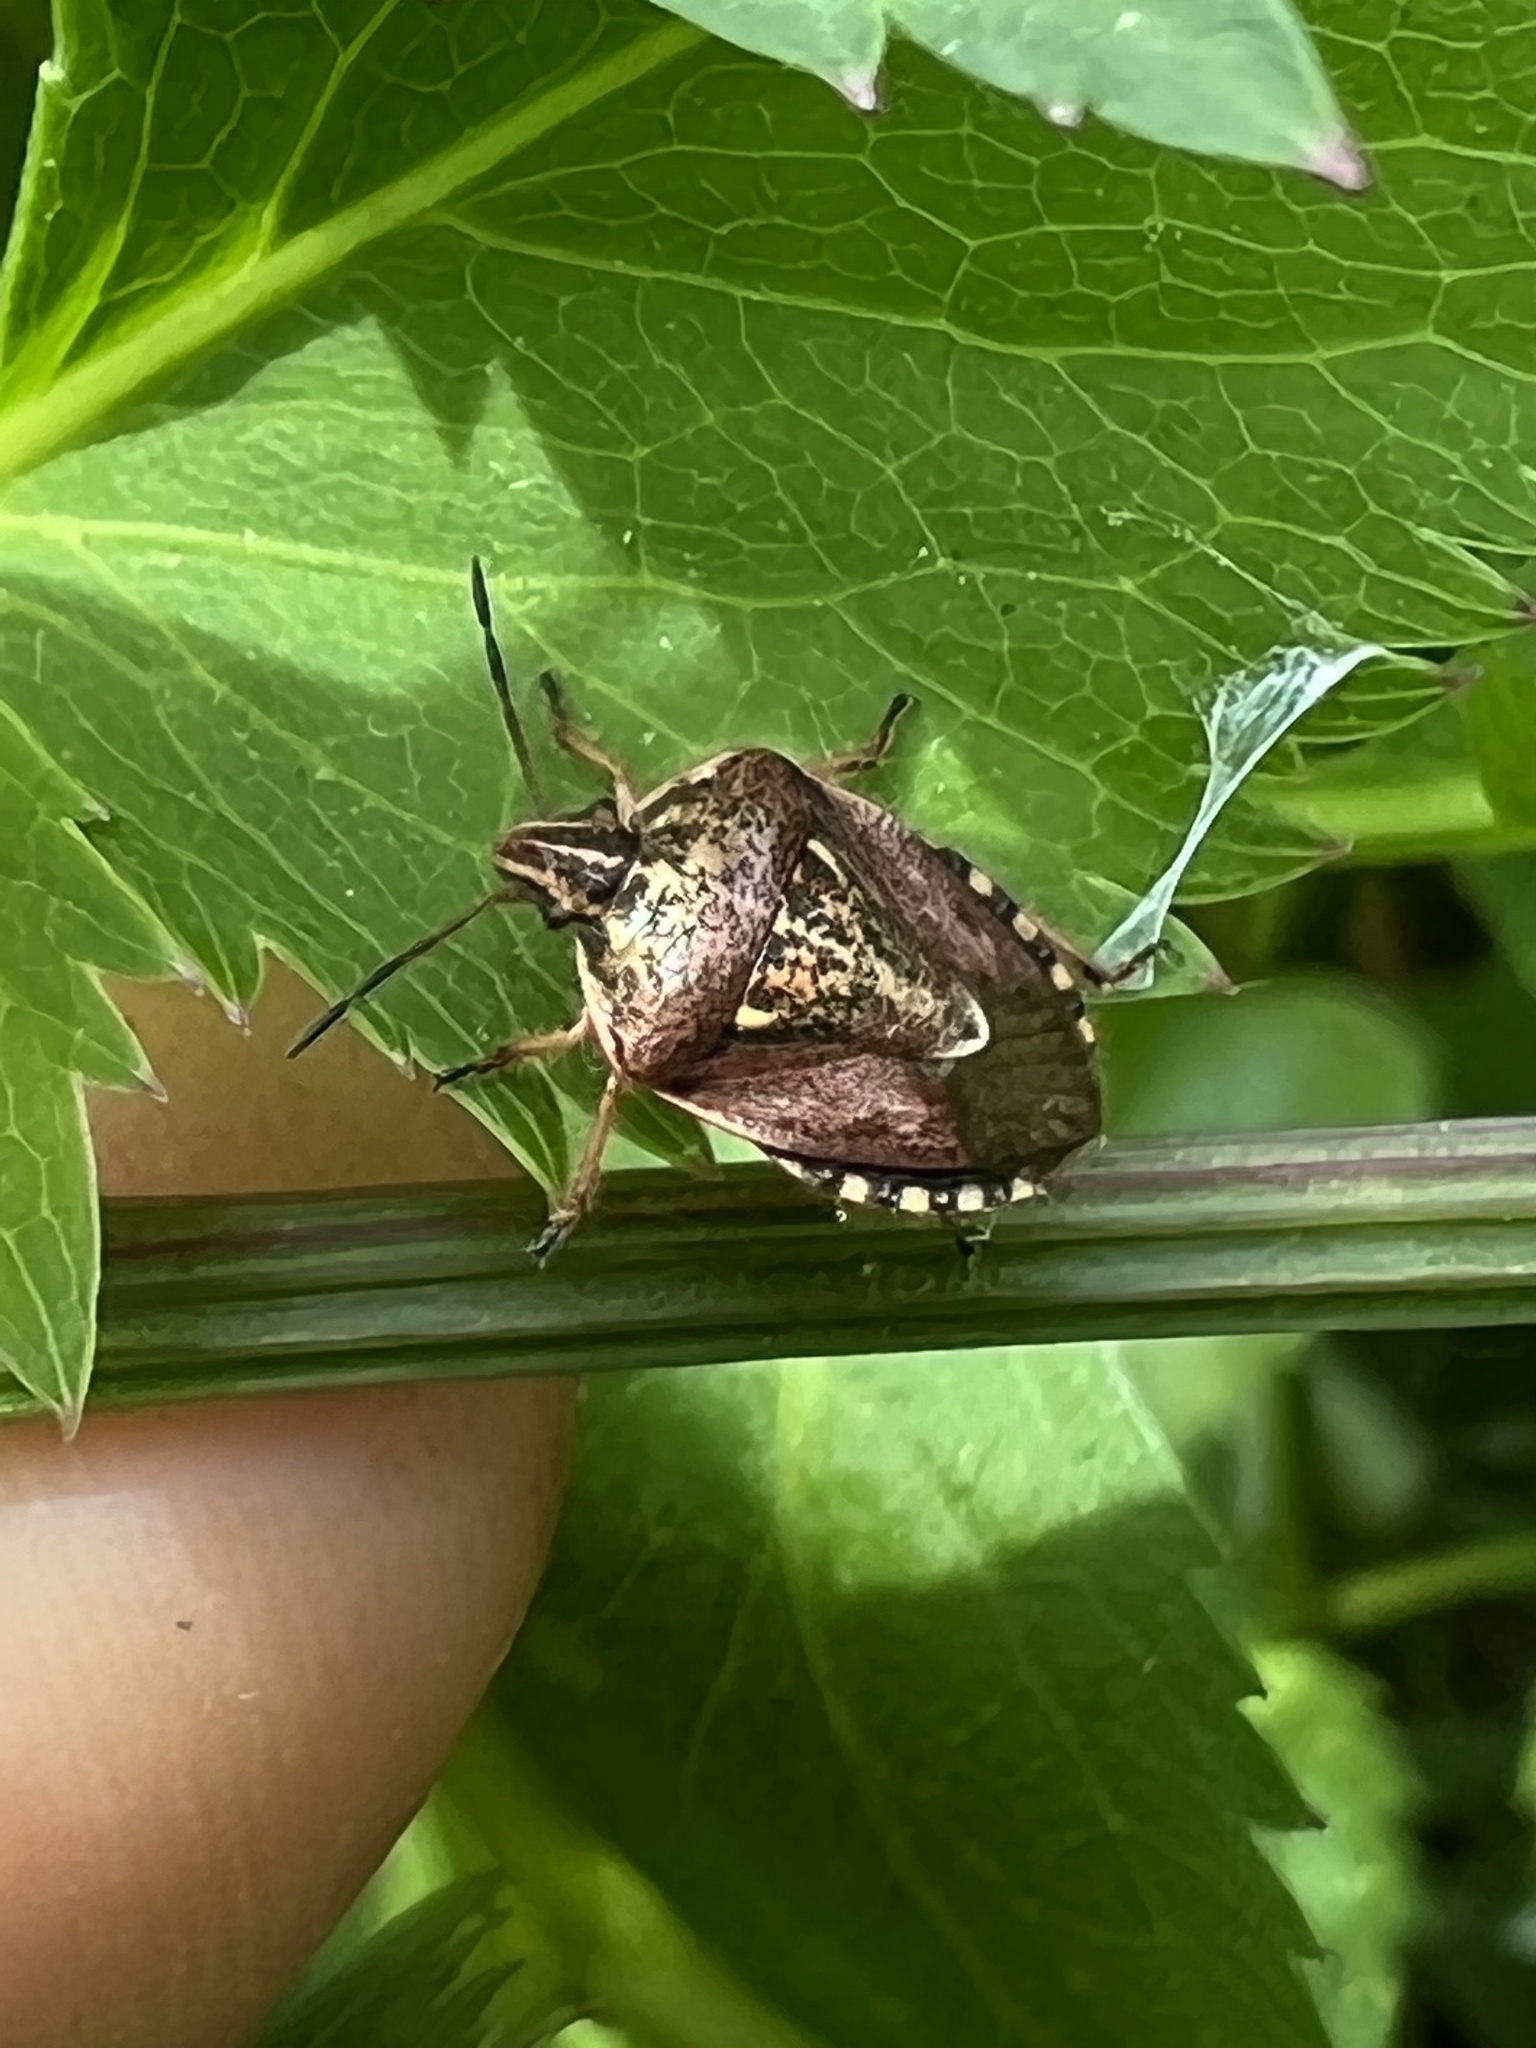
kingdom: Animalia
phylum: Arthropoda
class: Insecta
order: Hemiptera
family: Pentatomidae
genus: Trichopepla
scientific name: Trichopepla semivittata
